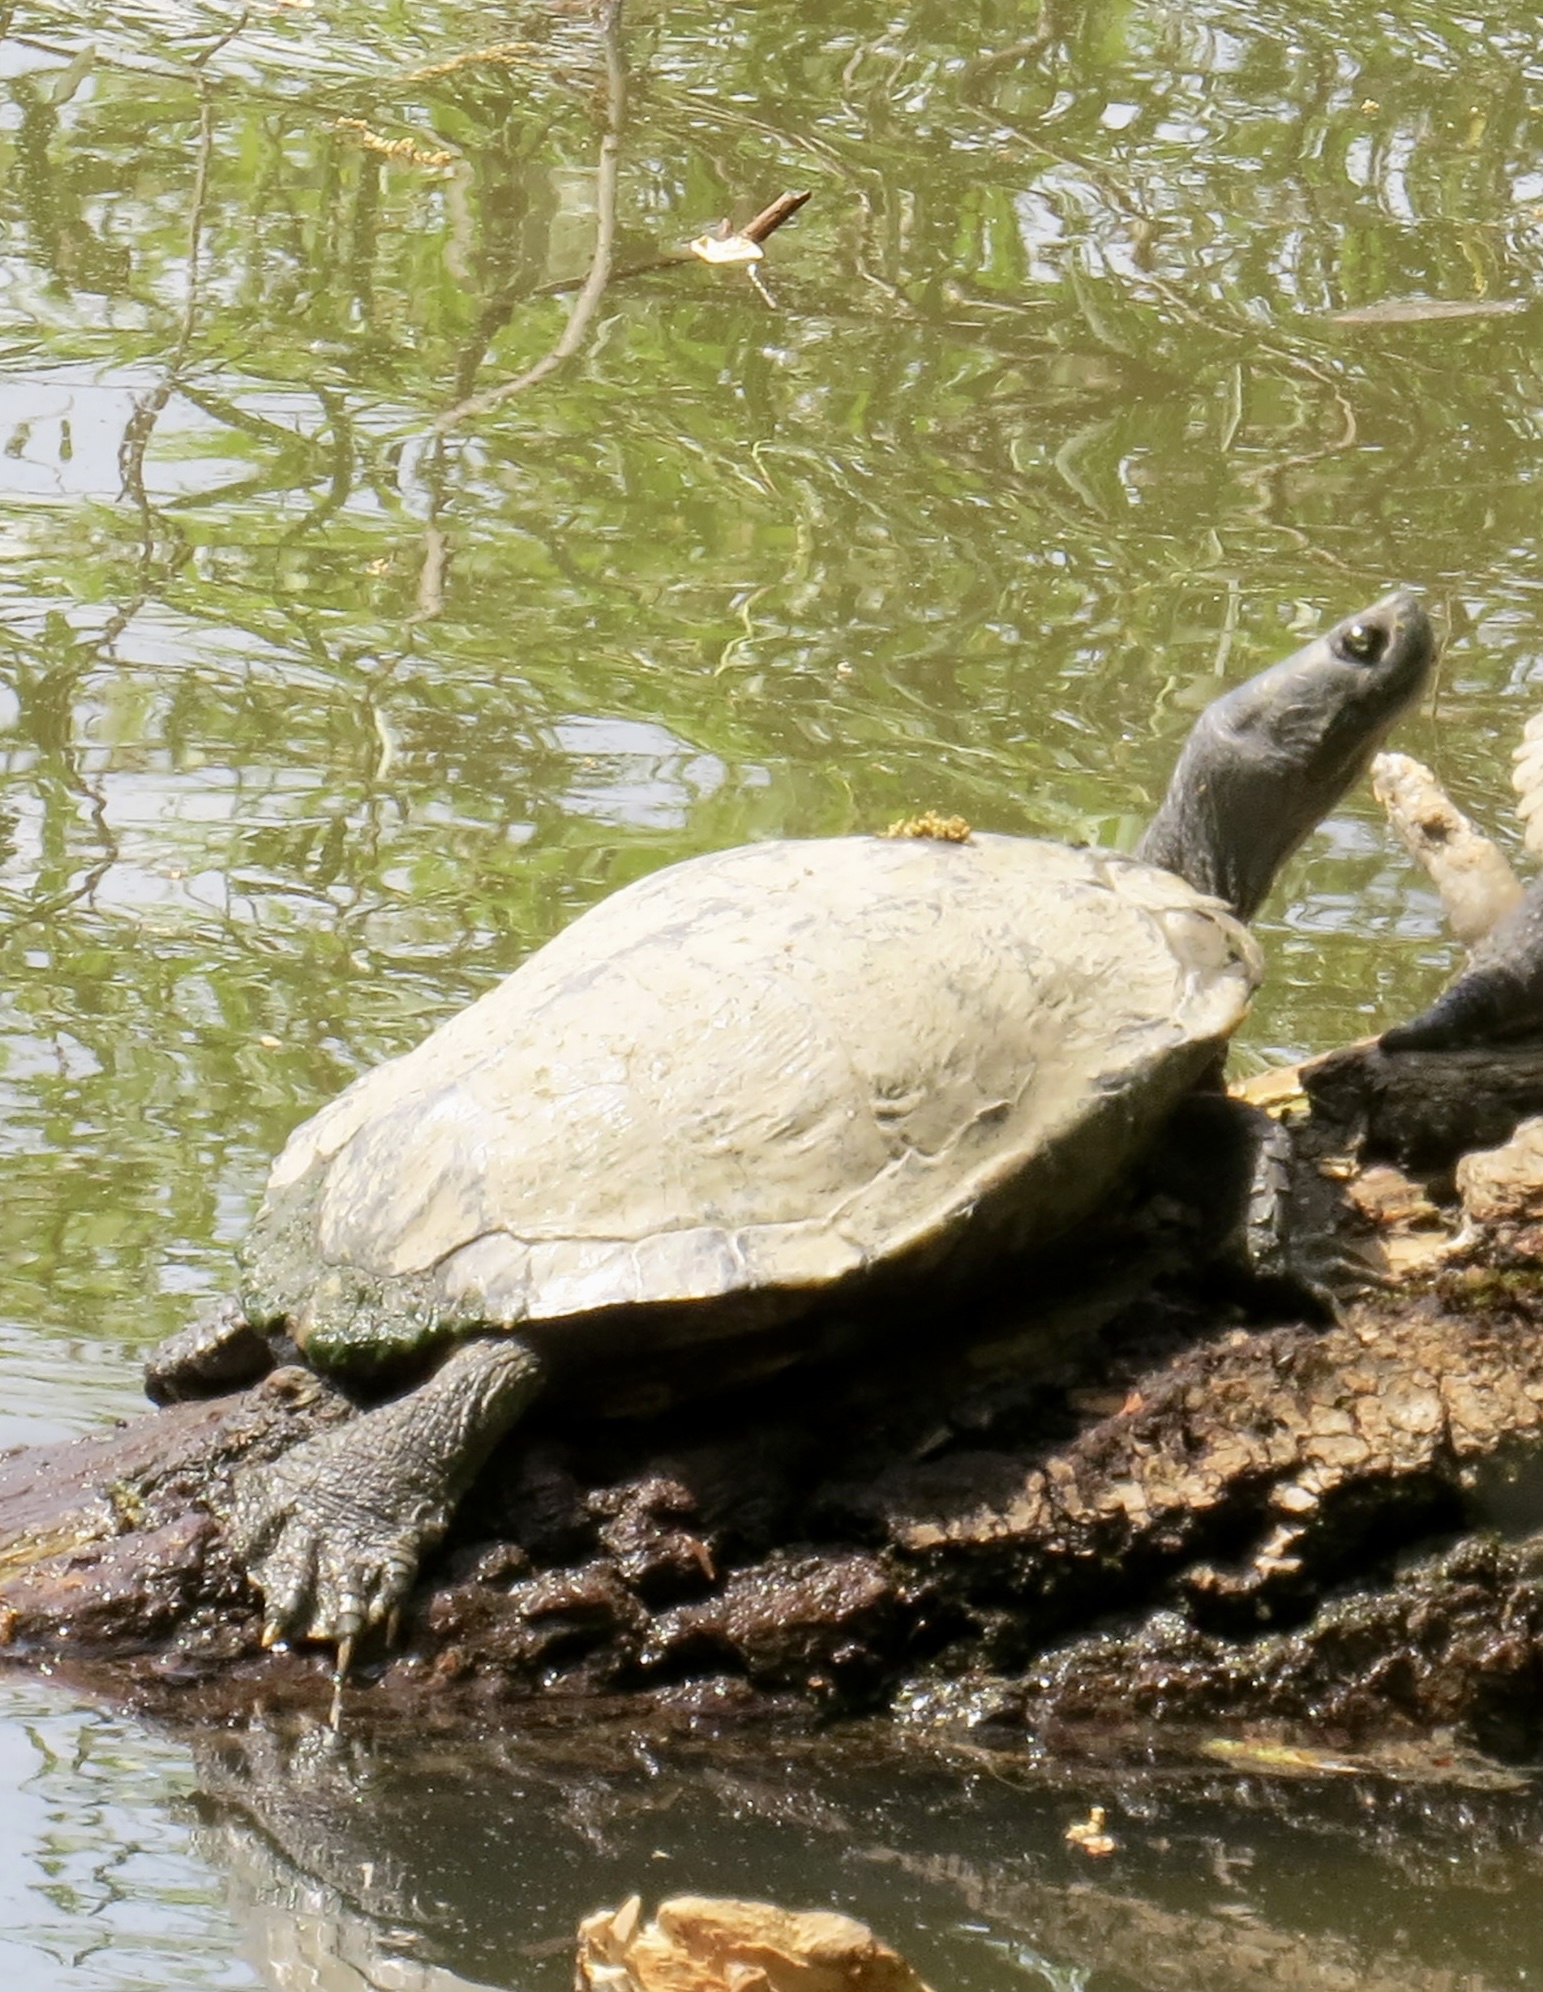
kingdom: Animalia
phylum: Chordata
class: Testudines
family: Emydidae
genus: Trachemys
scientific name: Trachemys scripta
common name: Slider
